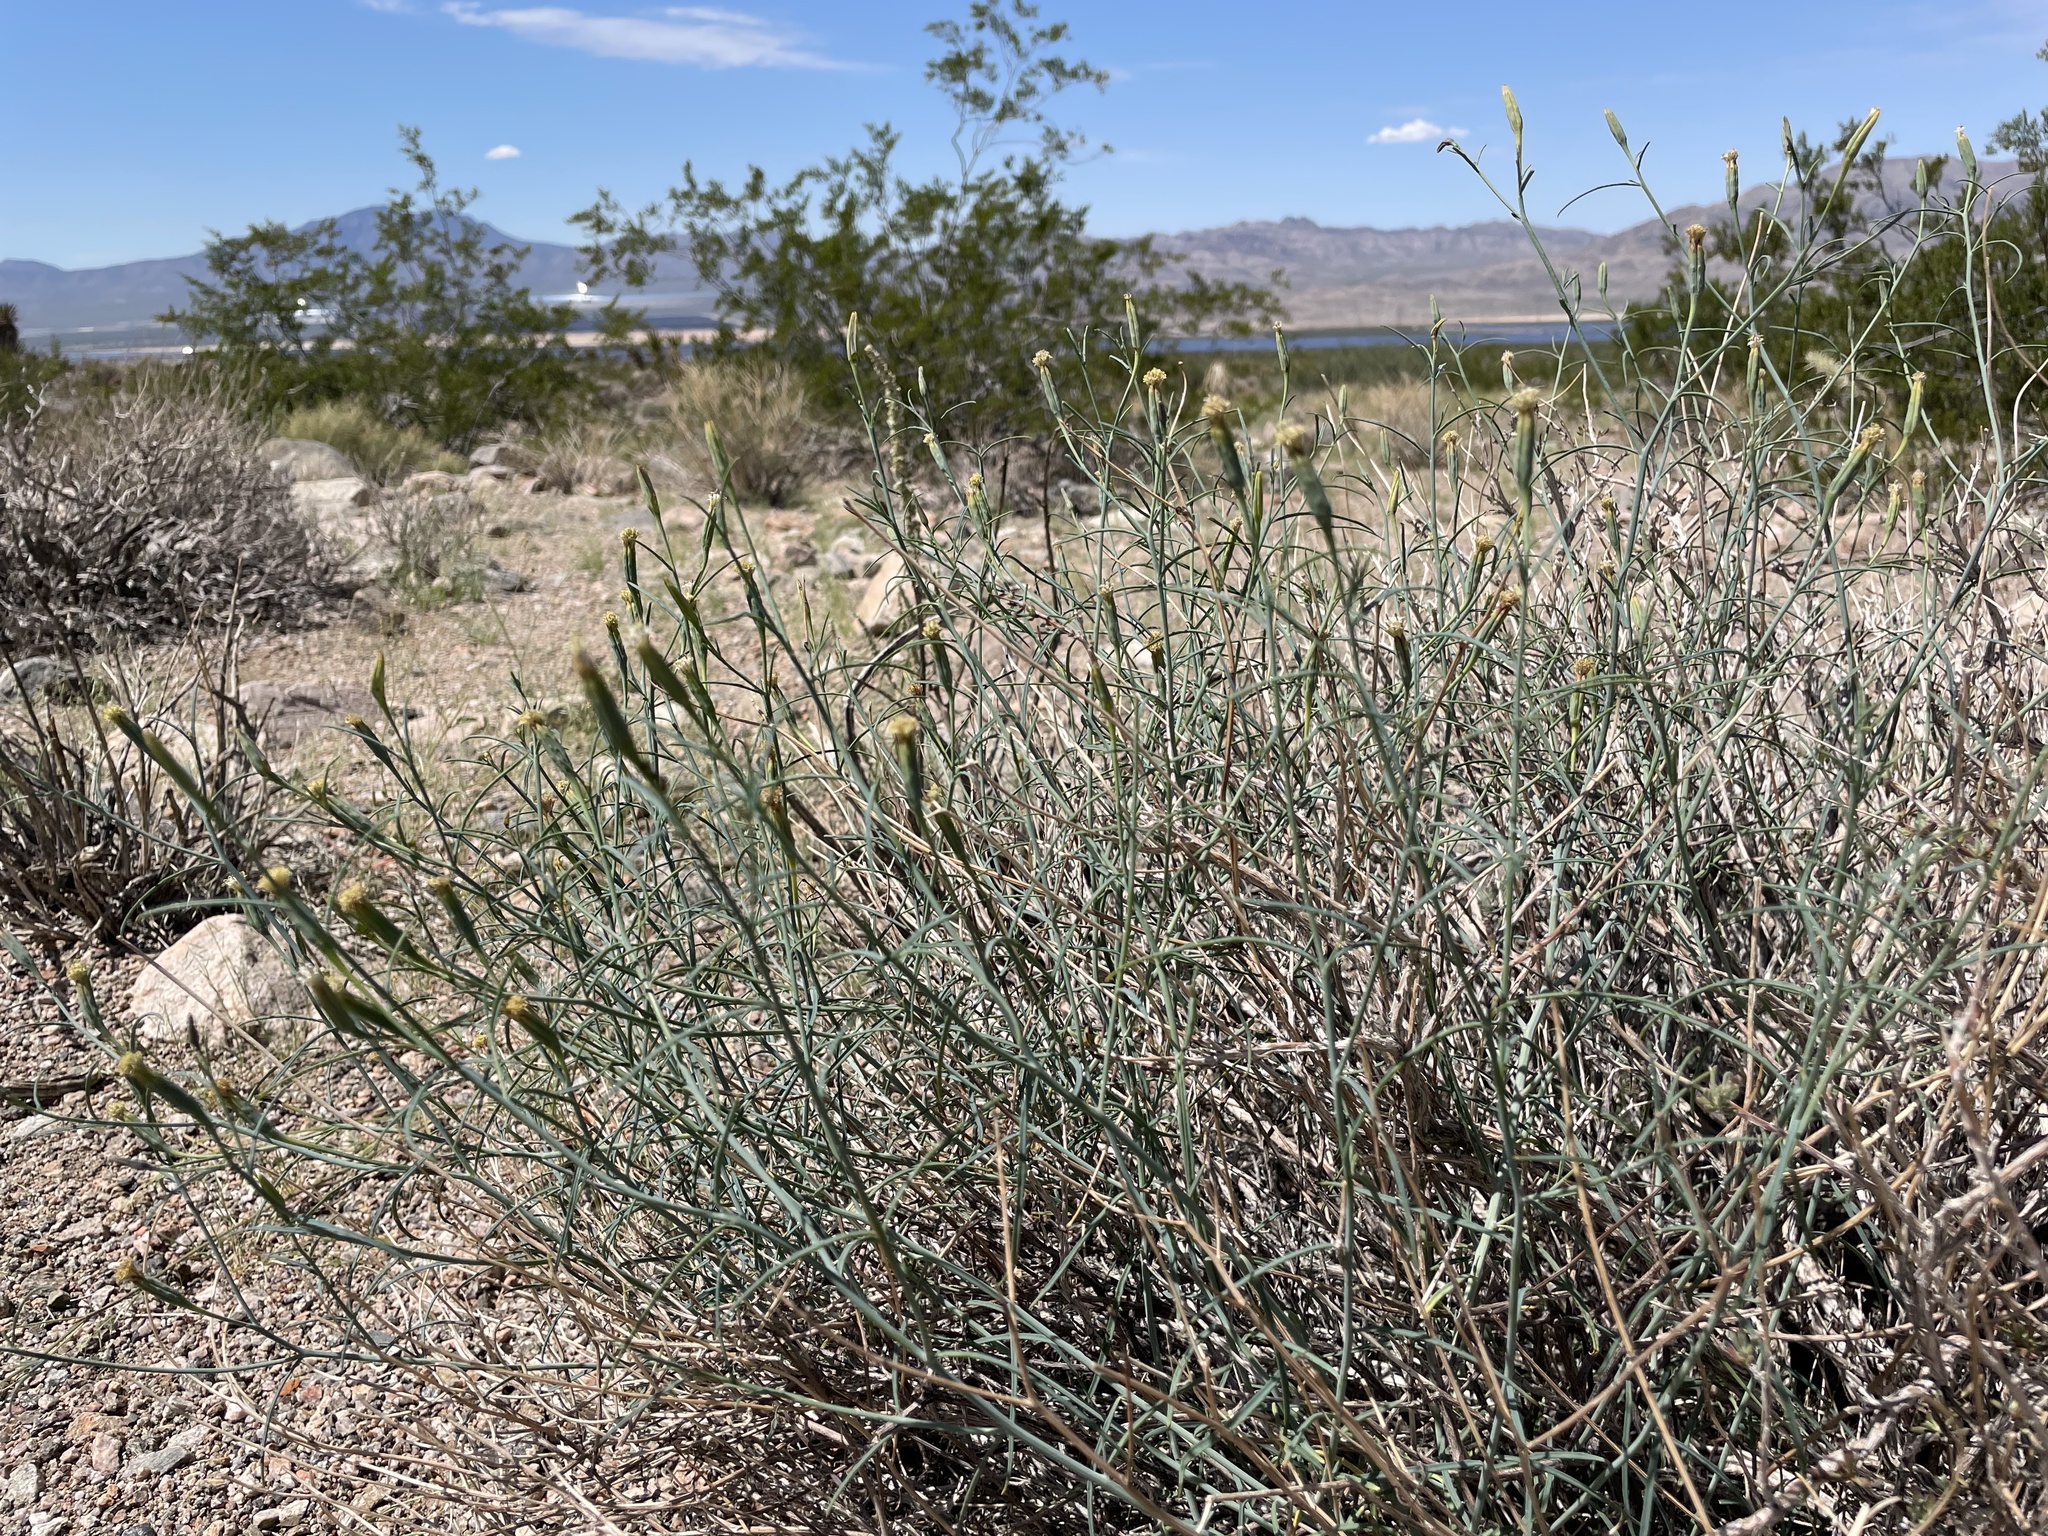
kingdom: Plantae
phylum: Tracheophyta
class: Magnoliopsida
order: Asterales
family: Asteraceae
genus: Porophyllum
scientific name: Porophyllum gracile
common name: Odora
